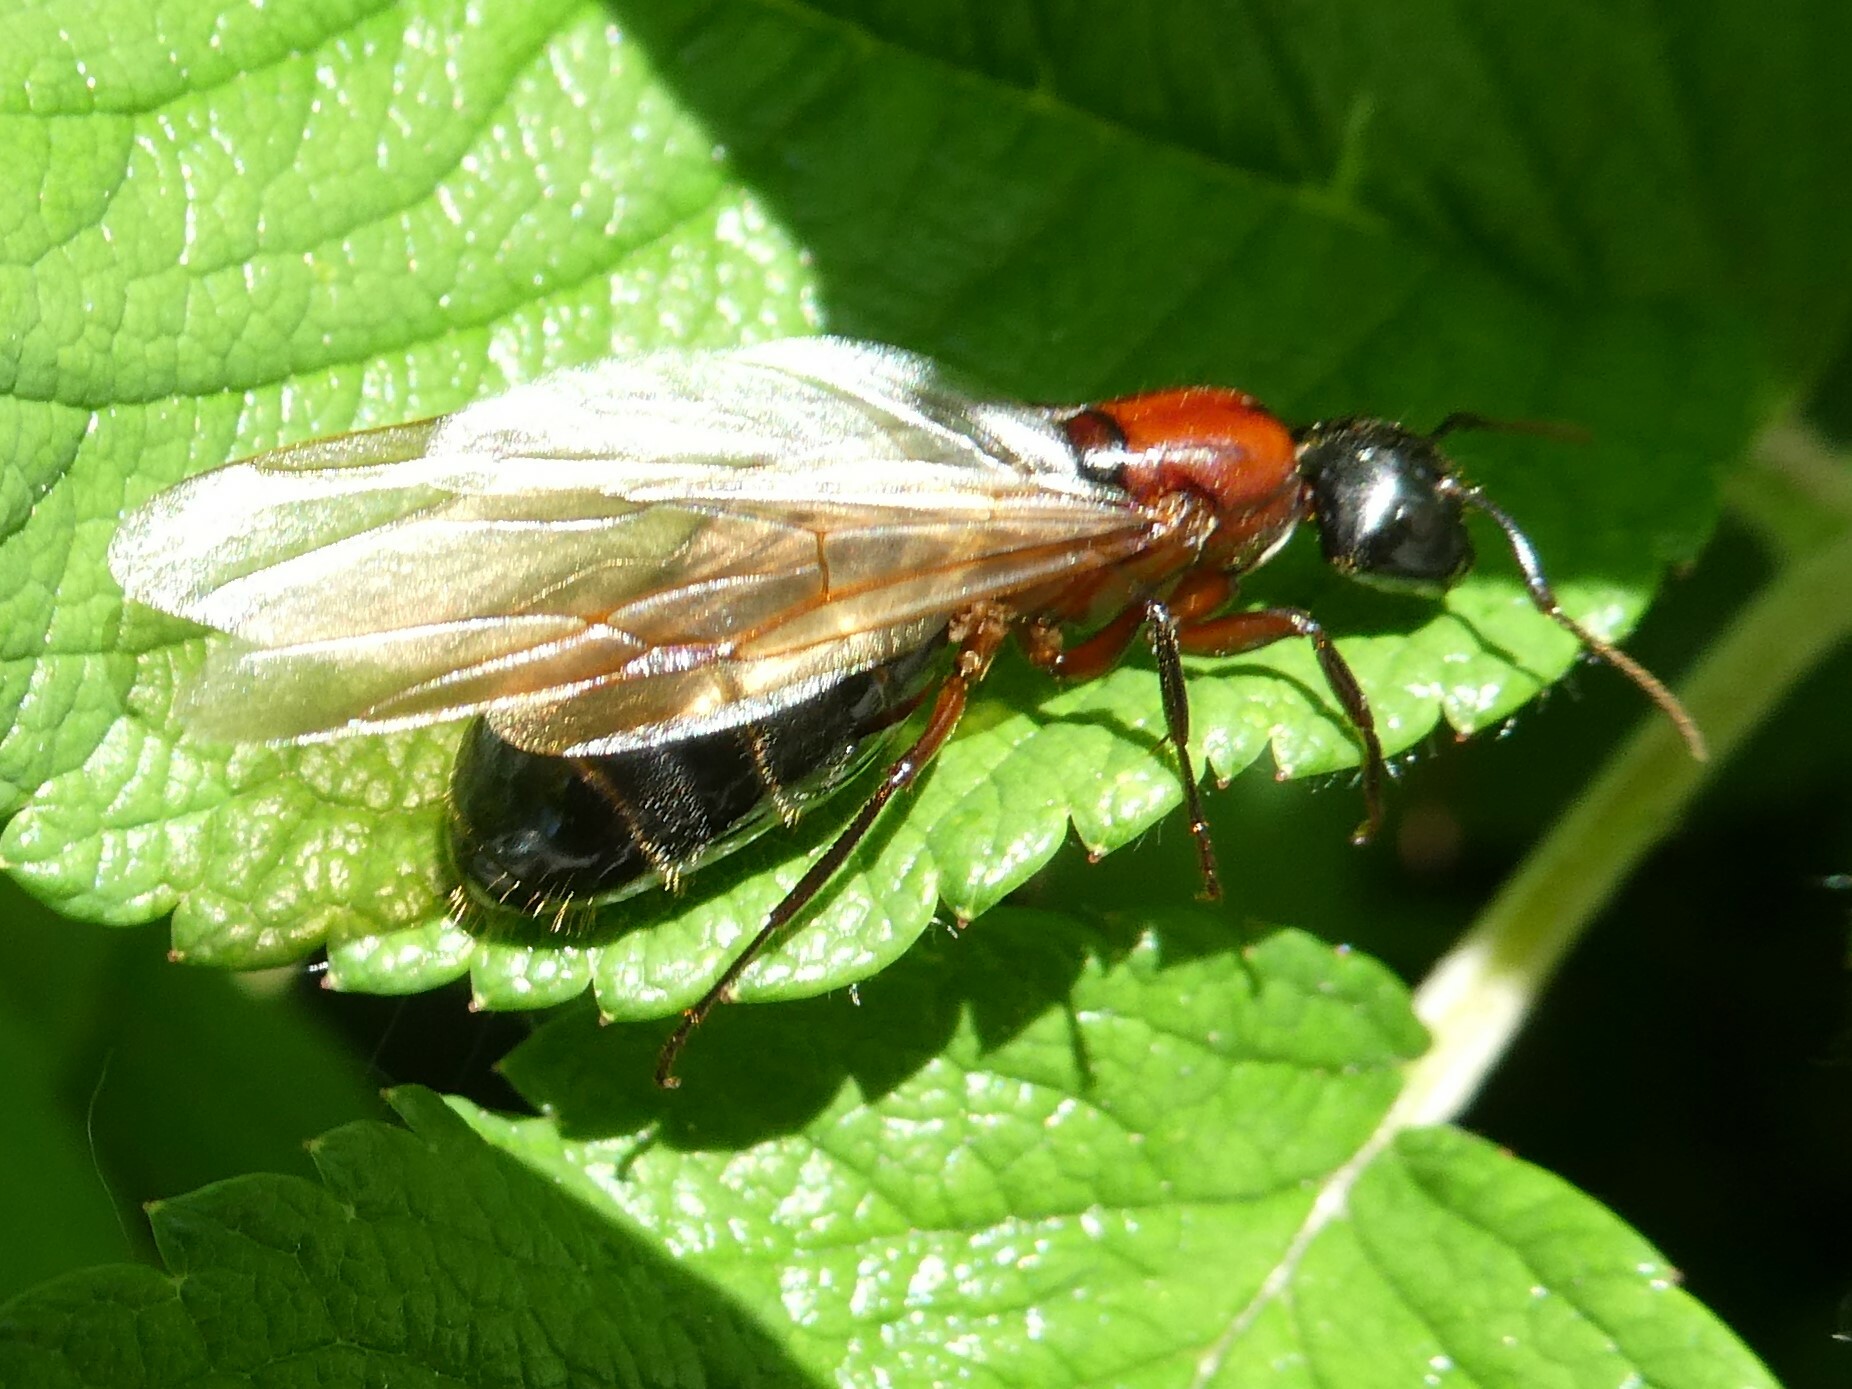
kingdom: Animalia
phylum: Arthropoda
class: Insecta
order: Hymenoptera
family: Formicidae
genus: Camponotus
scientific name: Camponotus novaeboracensis
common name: New york carpenter ant
